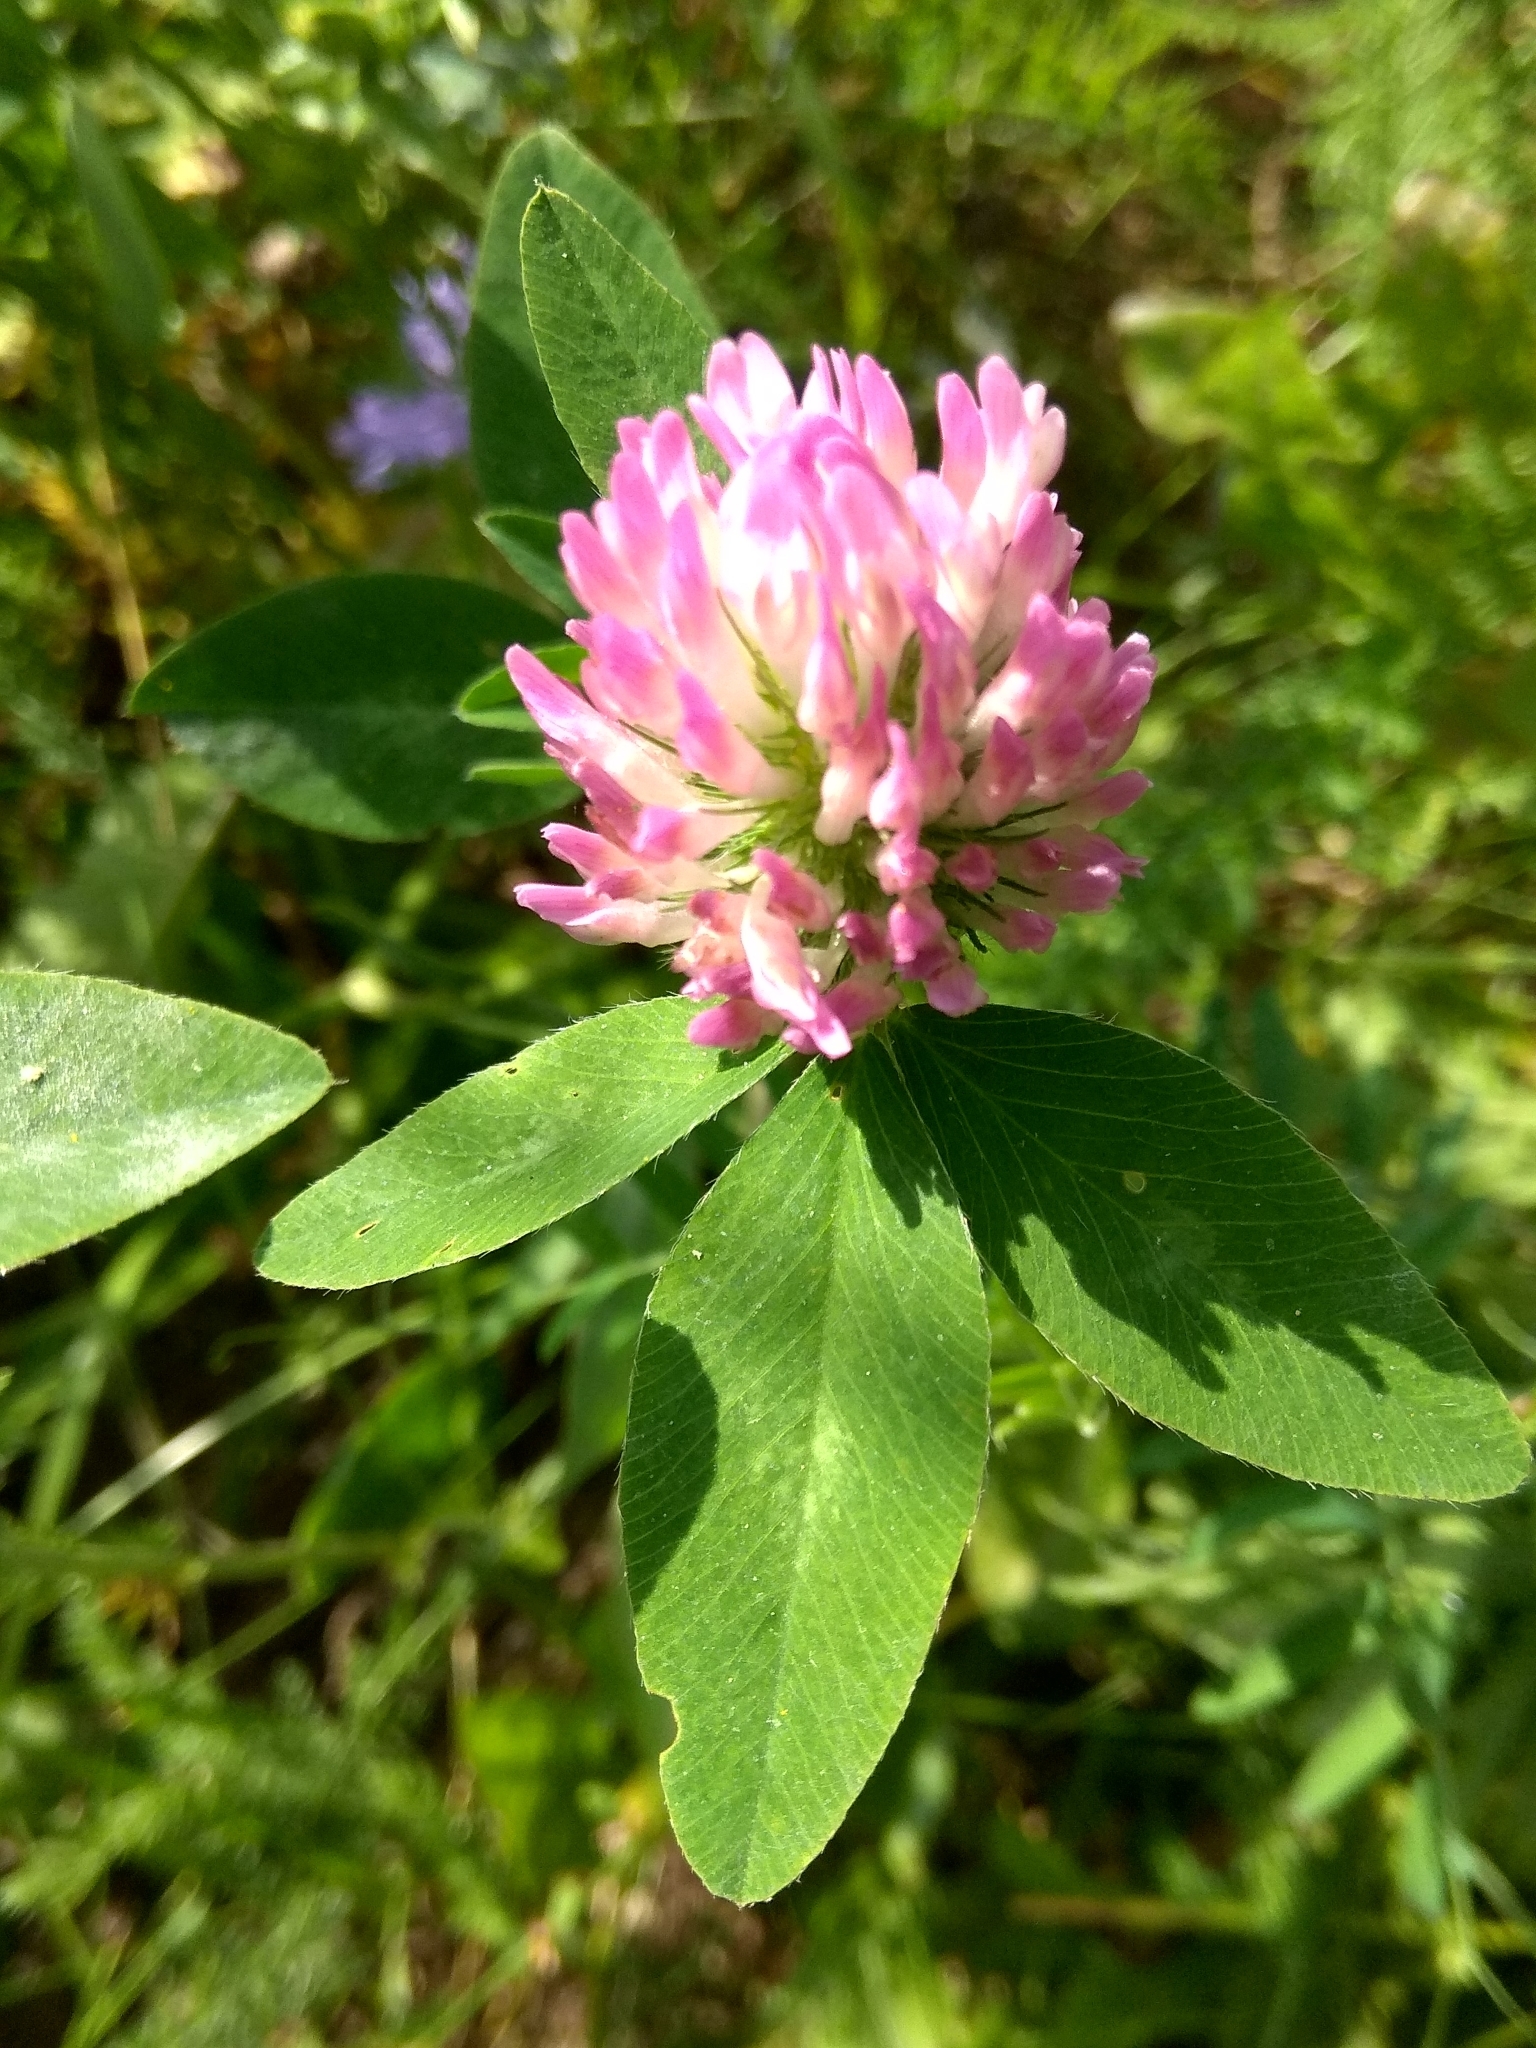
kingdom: Plantae
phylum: Tracheophyta
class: Magnoliopsida
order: Fabales
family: Fabaceae
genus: Trifolium
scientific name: Trifolium pratense
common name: Red clover
